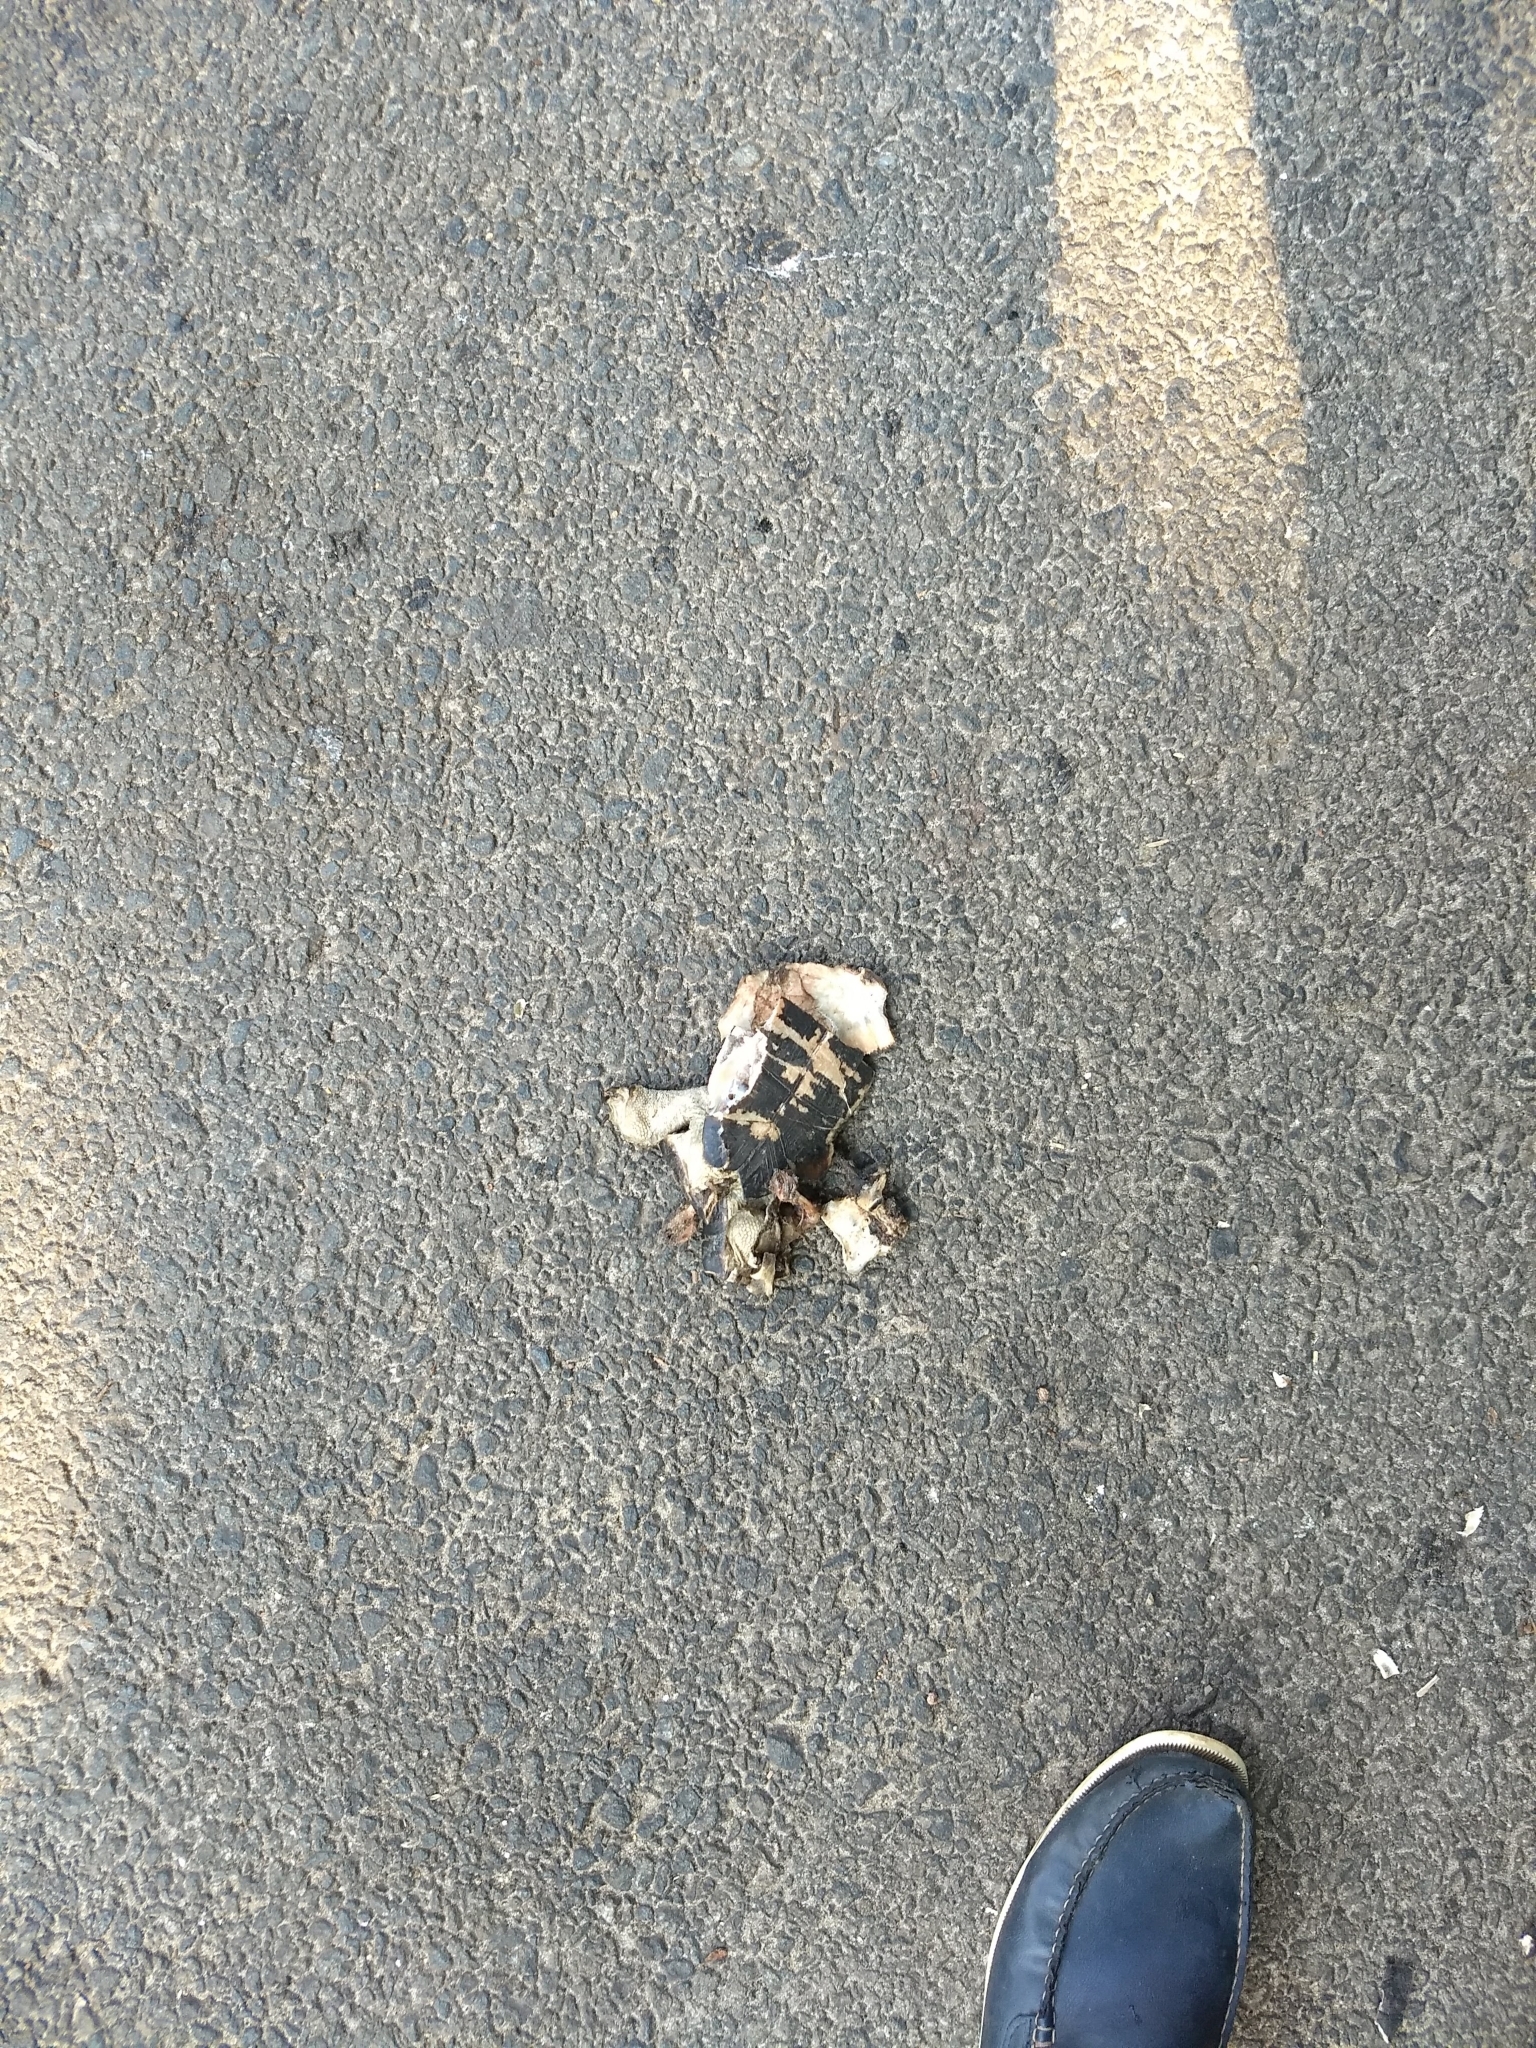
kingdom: Animalia
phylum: Chordata
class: Testudines
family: Geoemydidae
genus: Melanochelys
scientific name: Melanochelys trijuga
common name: Indian black turtle
